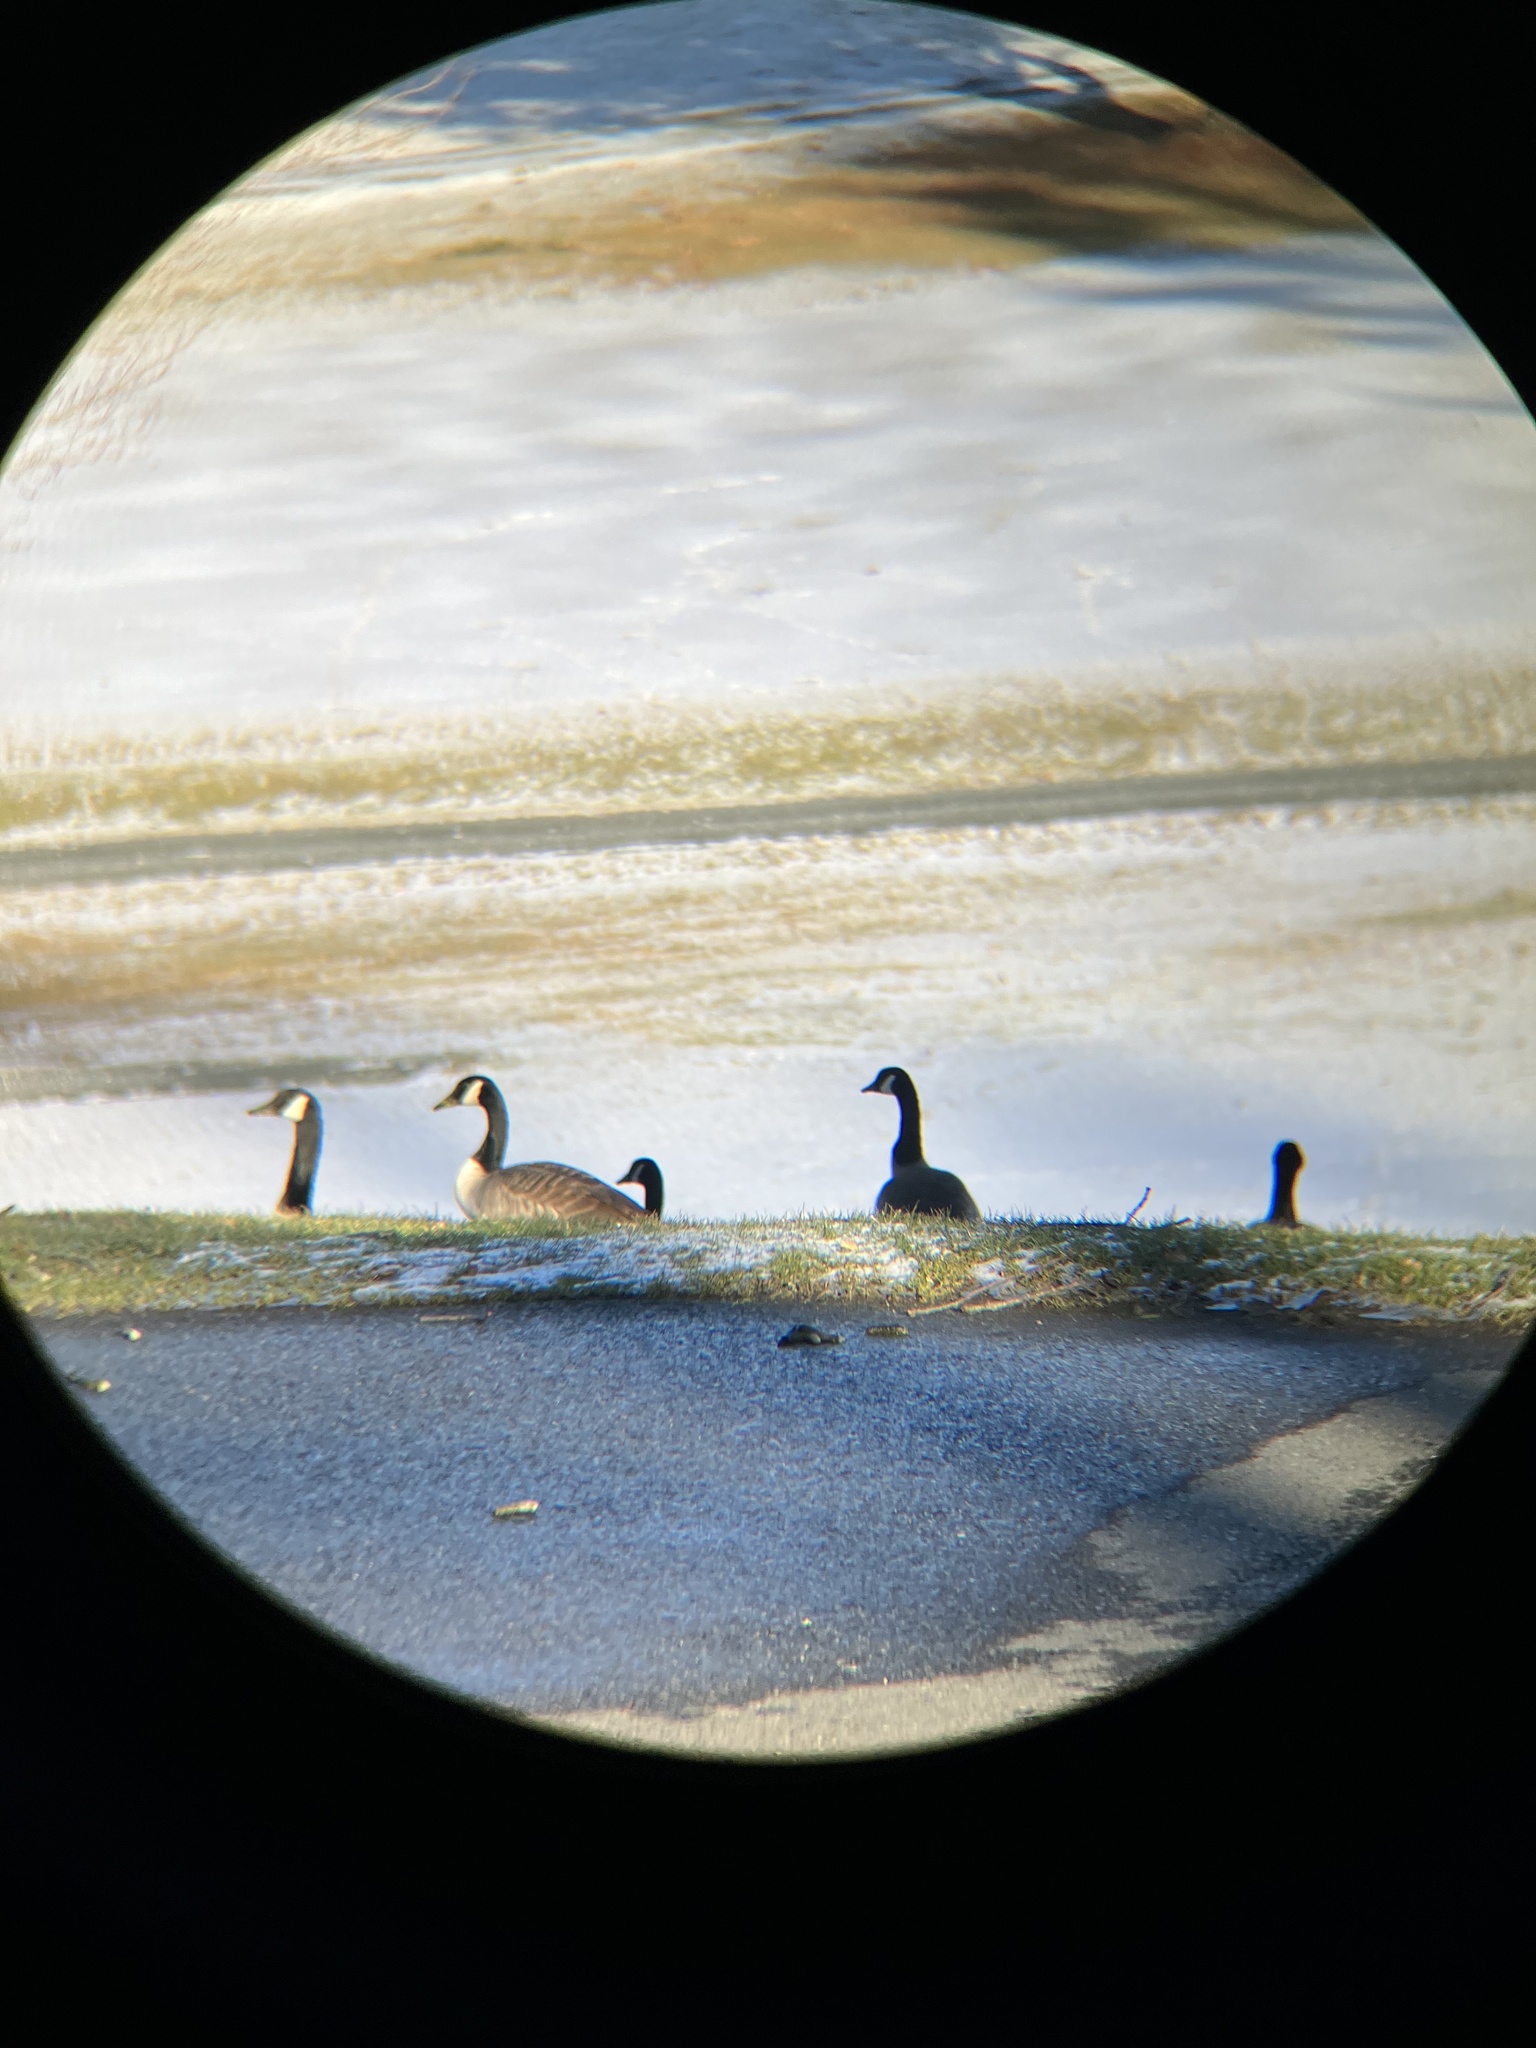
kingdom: Animalia
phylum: Chordata
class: Aves
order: Anseriformes
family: Anatidae
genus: Branta
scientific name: Branta canadensis
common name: Canada goose
